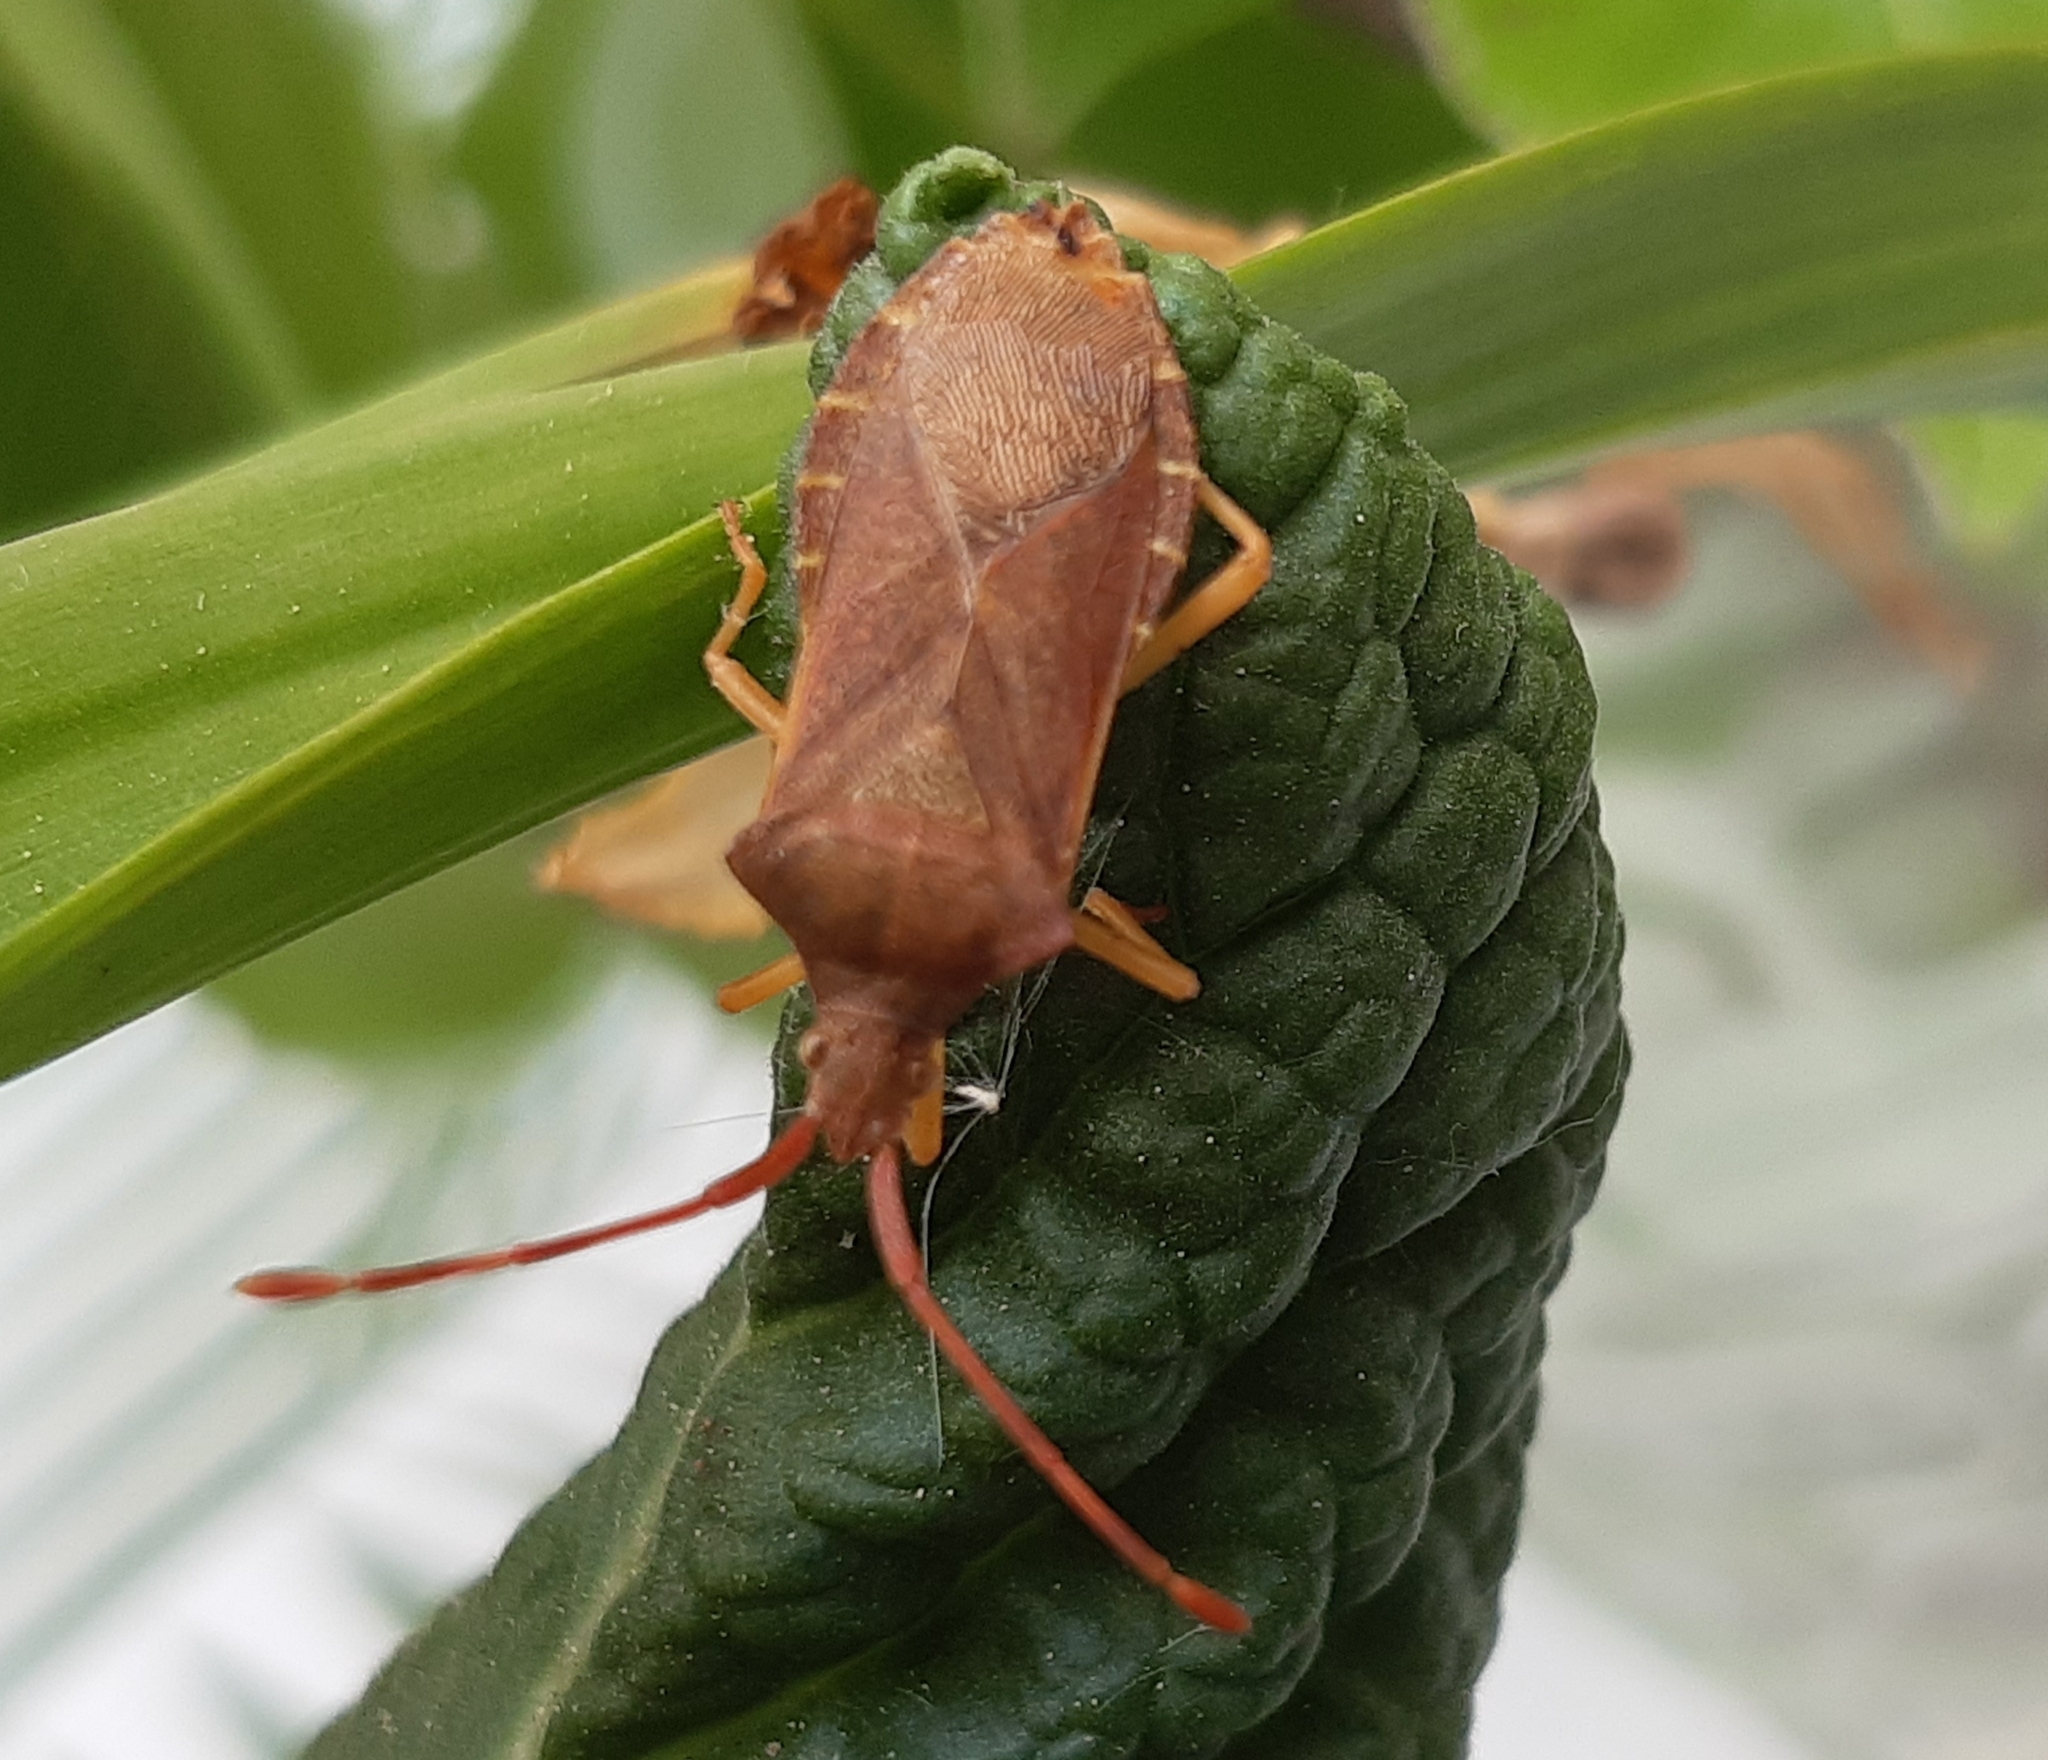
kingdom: Animalia
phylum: Arthropoda
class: Insecta
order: Hemiptera
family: Coreidae
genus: Gonocerus
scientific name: Gonocerus acuteangulatus
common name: Box bug
